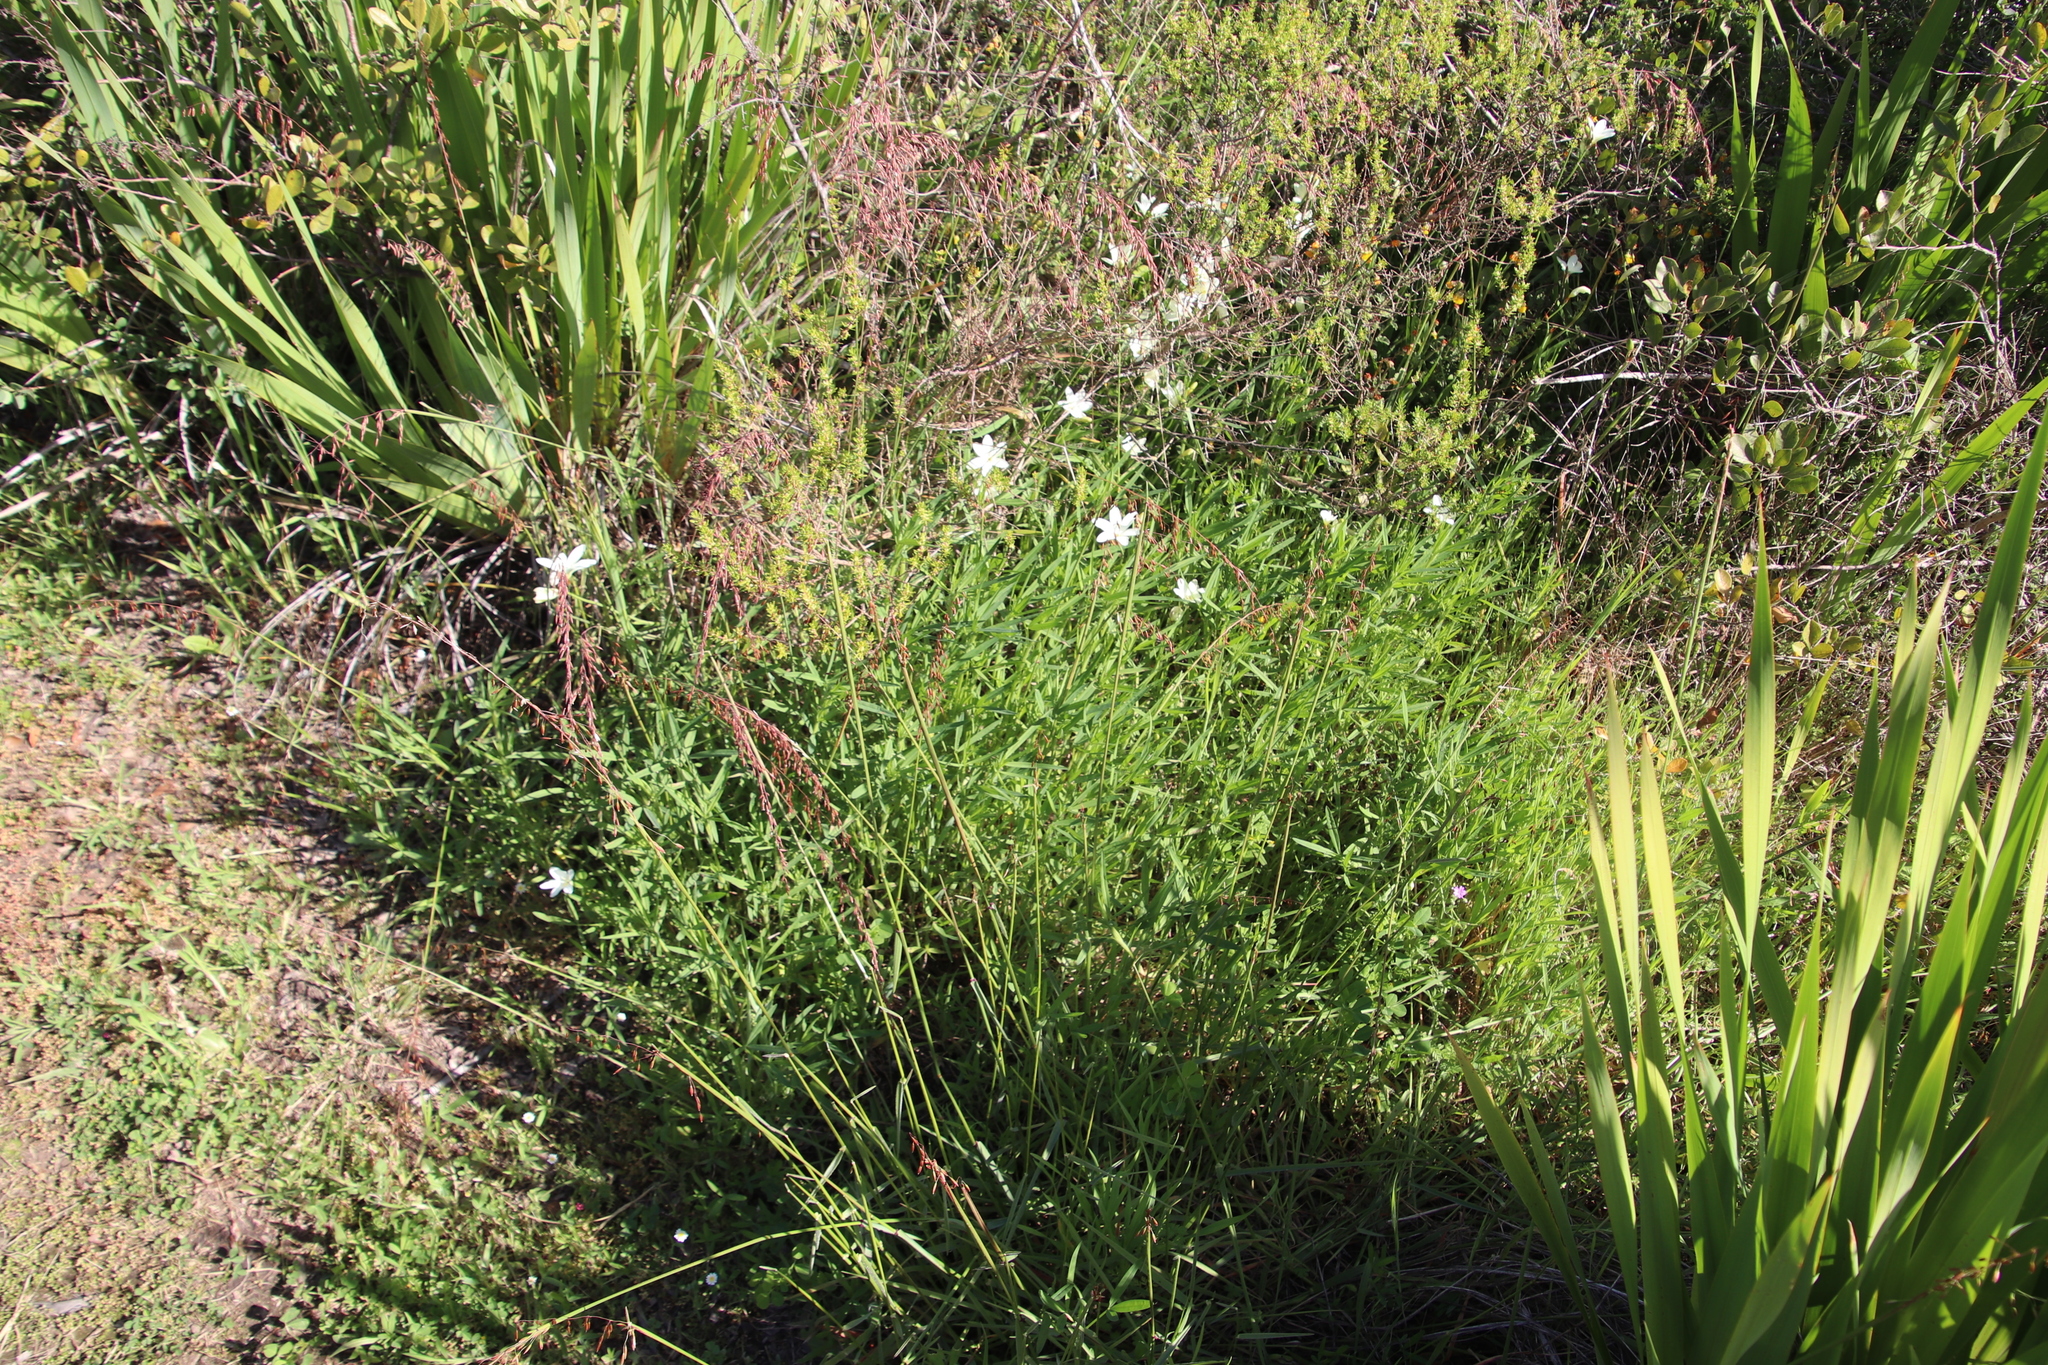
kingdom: Plantae
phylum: Tracheophyta
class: Liliopsida
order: Asparagales
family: Iridaceae
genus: Sparaxis
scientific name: Sparaxis bulbifera
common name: Harlequin-flower
